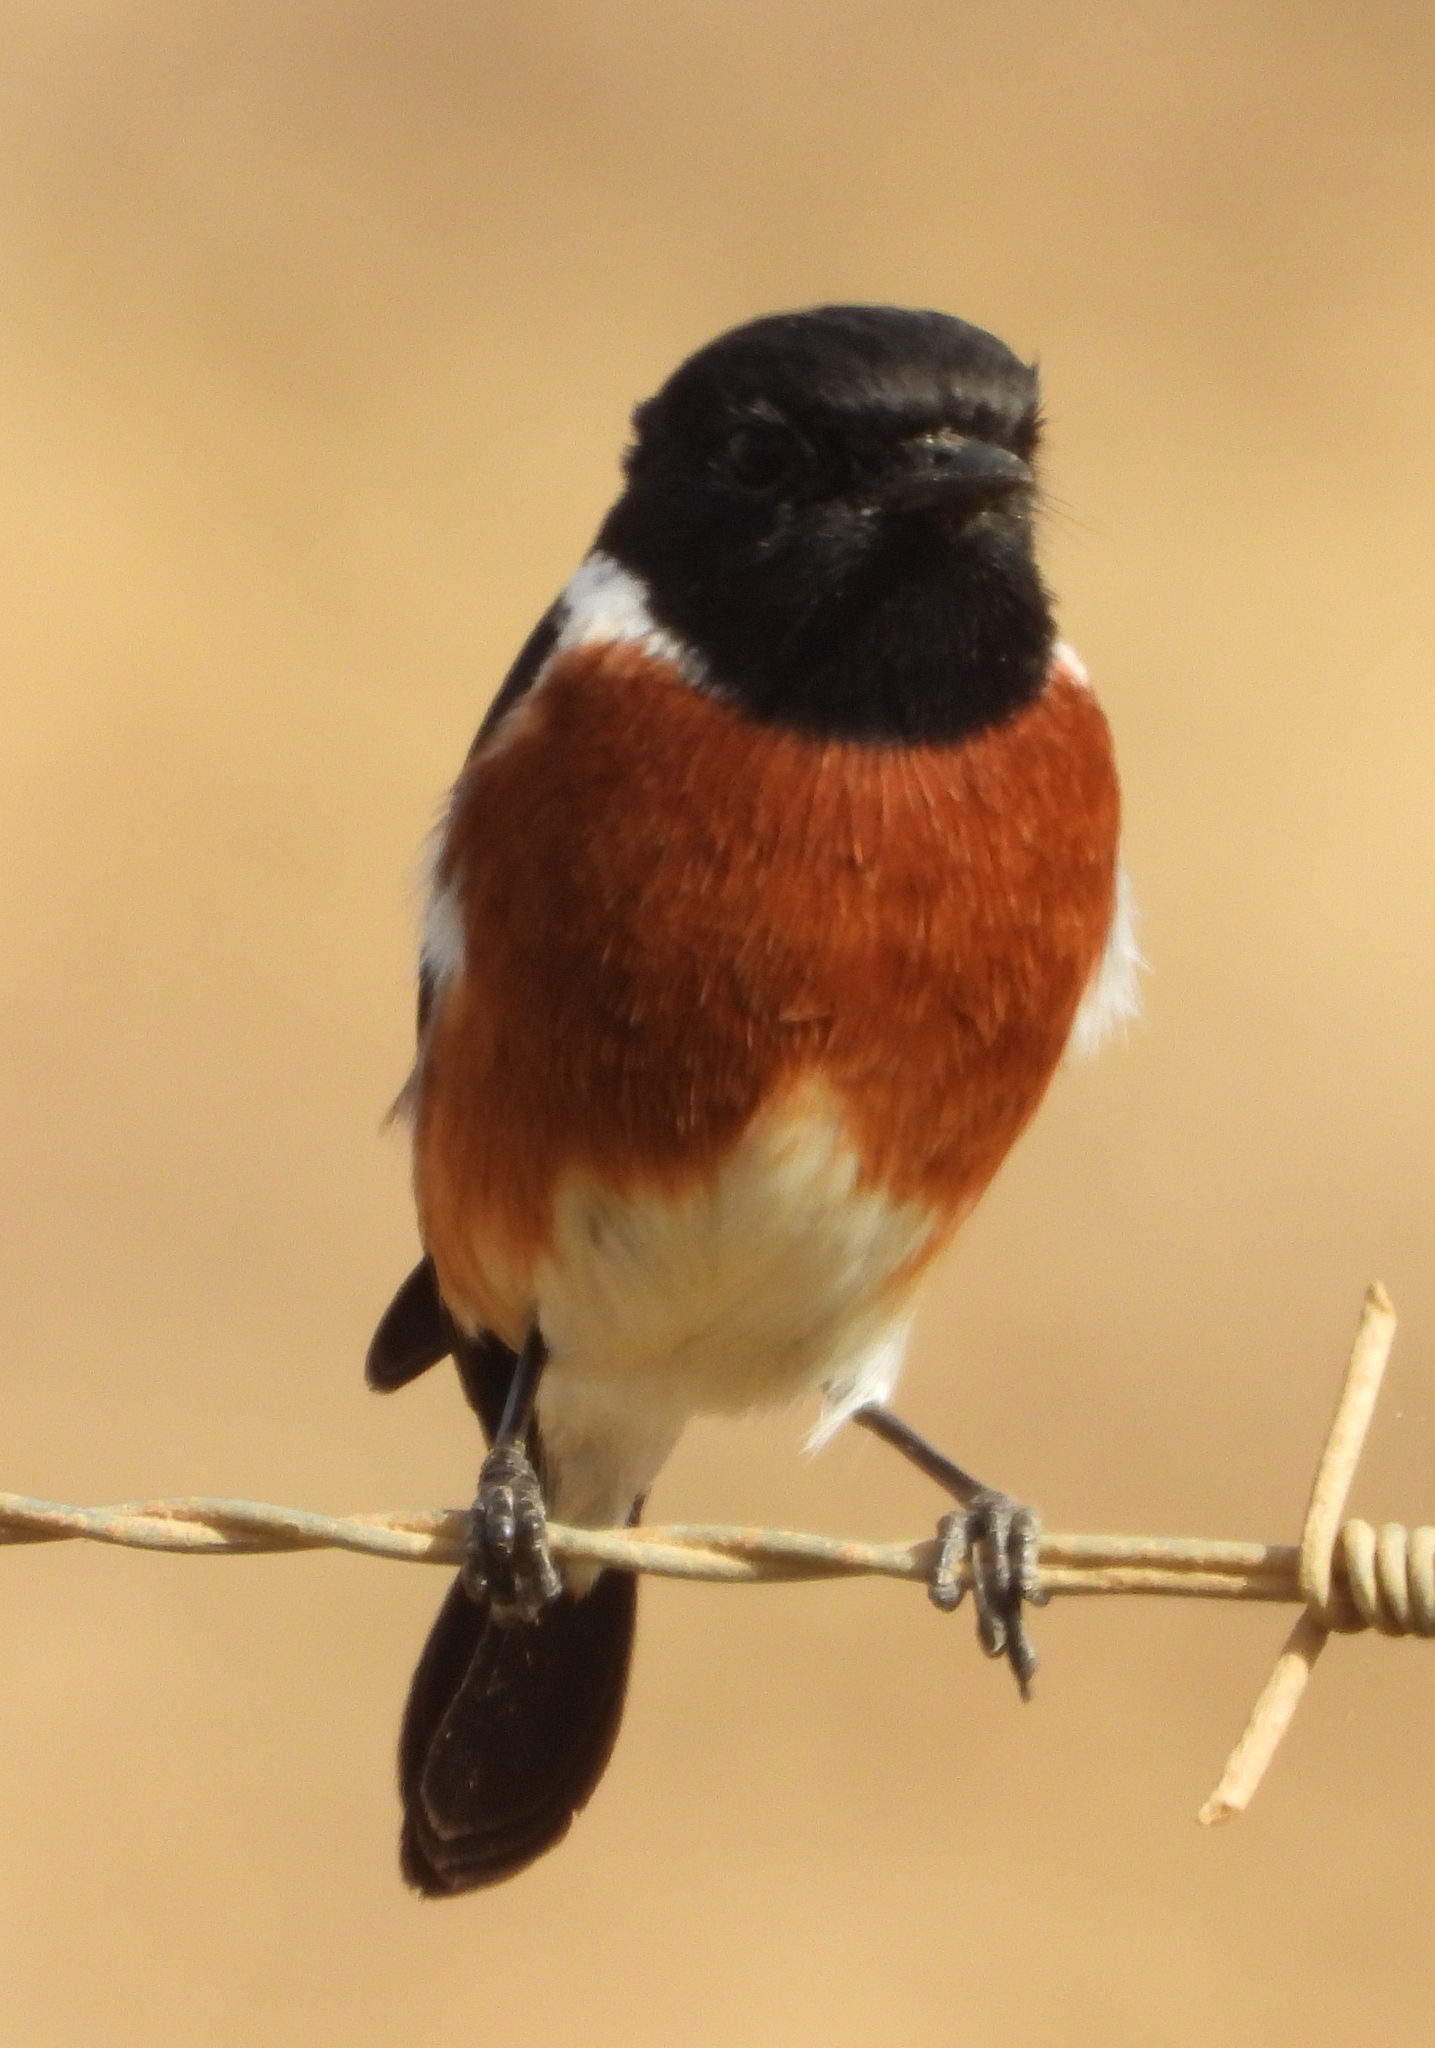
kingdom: Animalia
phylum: Chordata
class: Aves
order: Passeriformes
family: Muscicapidae
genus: Saxicola
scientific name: Saxicola torquatus
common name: African stonechat
